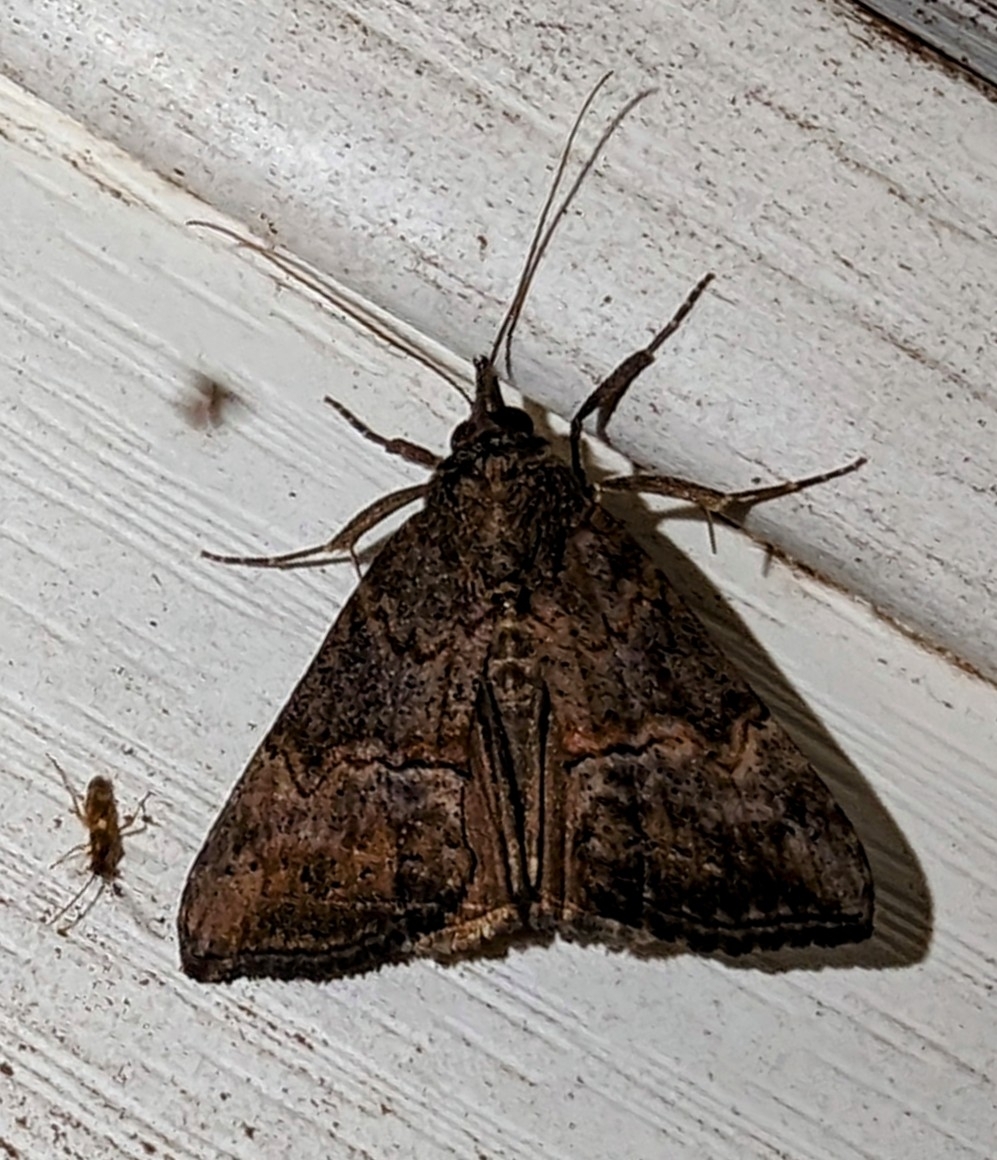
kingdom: Animalia
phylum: Arthropoda
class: Insecta
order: Lepidoptera
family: Erebidae
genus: Hypena
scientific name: Hypena scabra
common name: Green cloverworm
